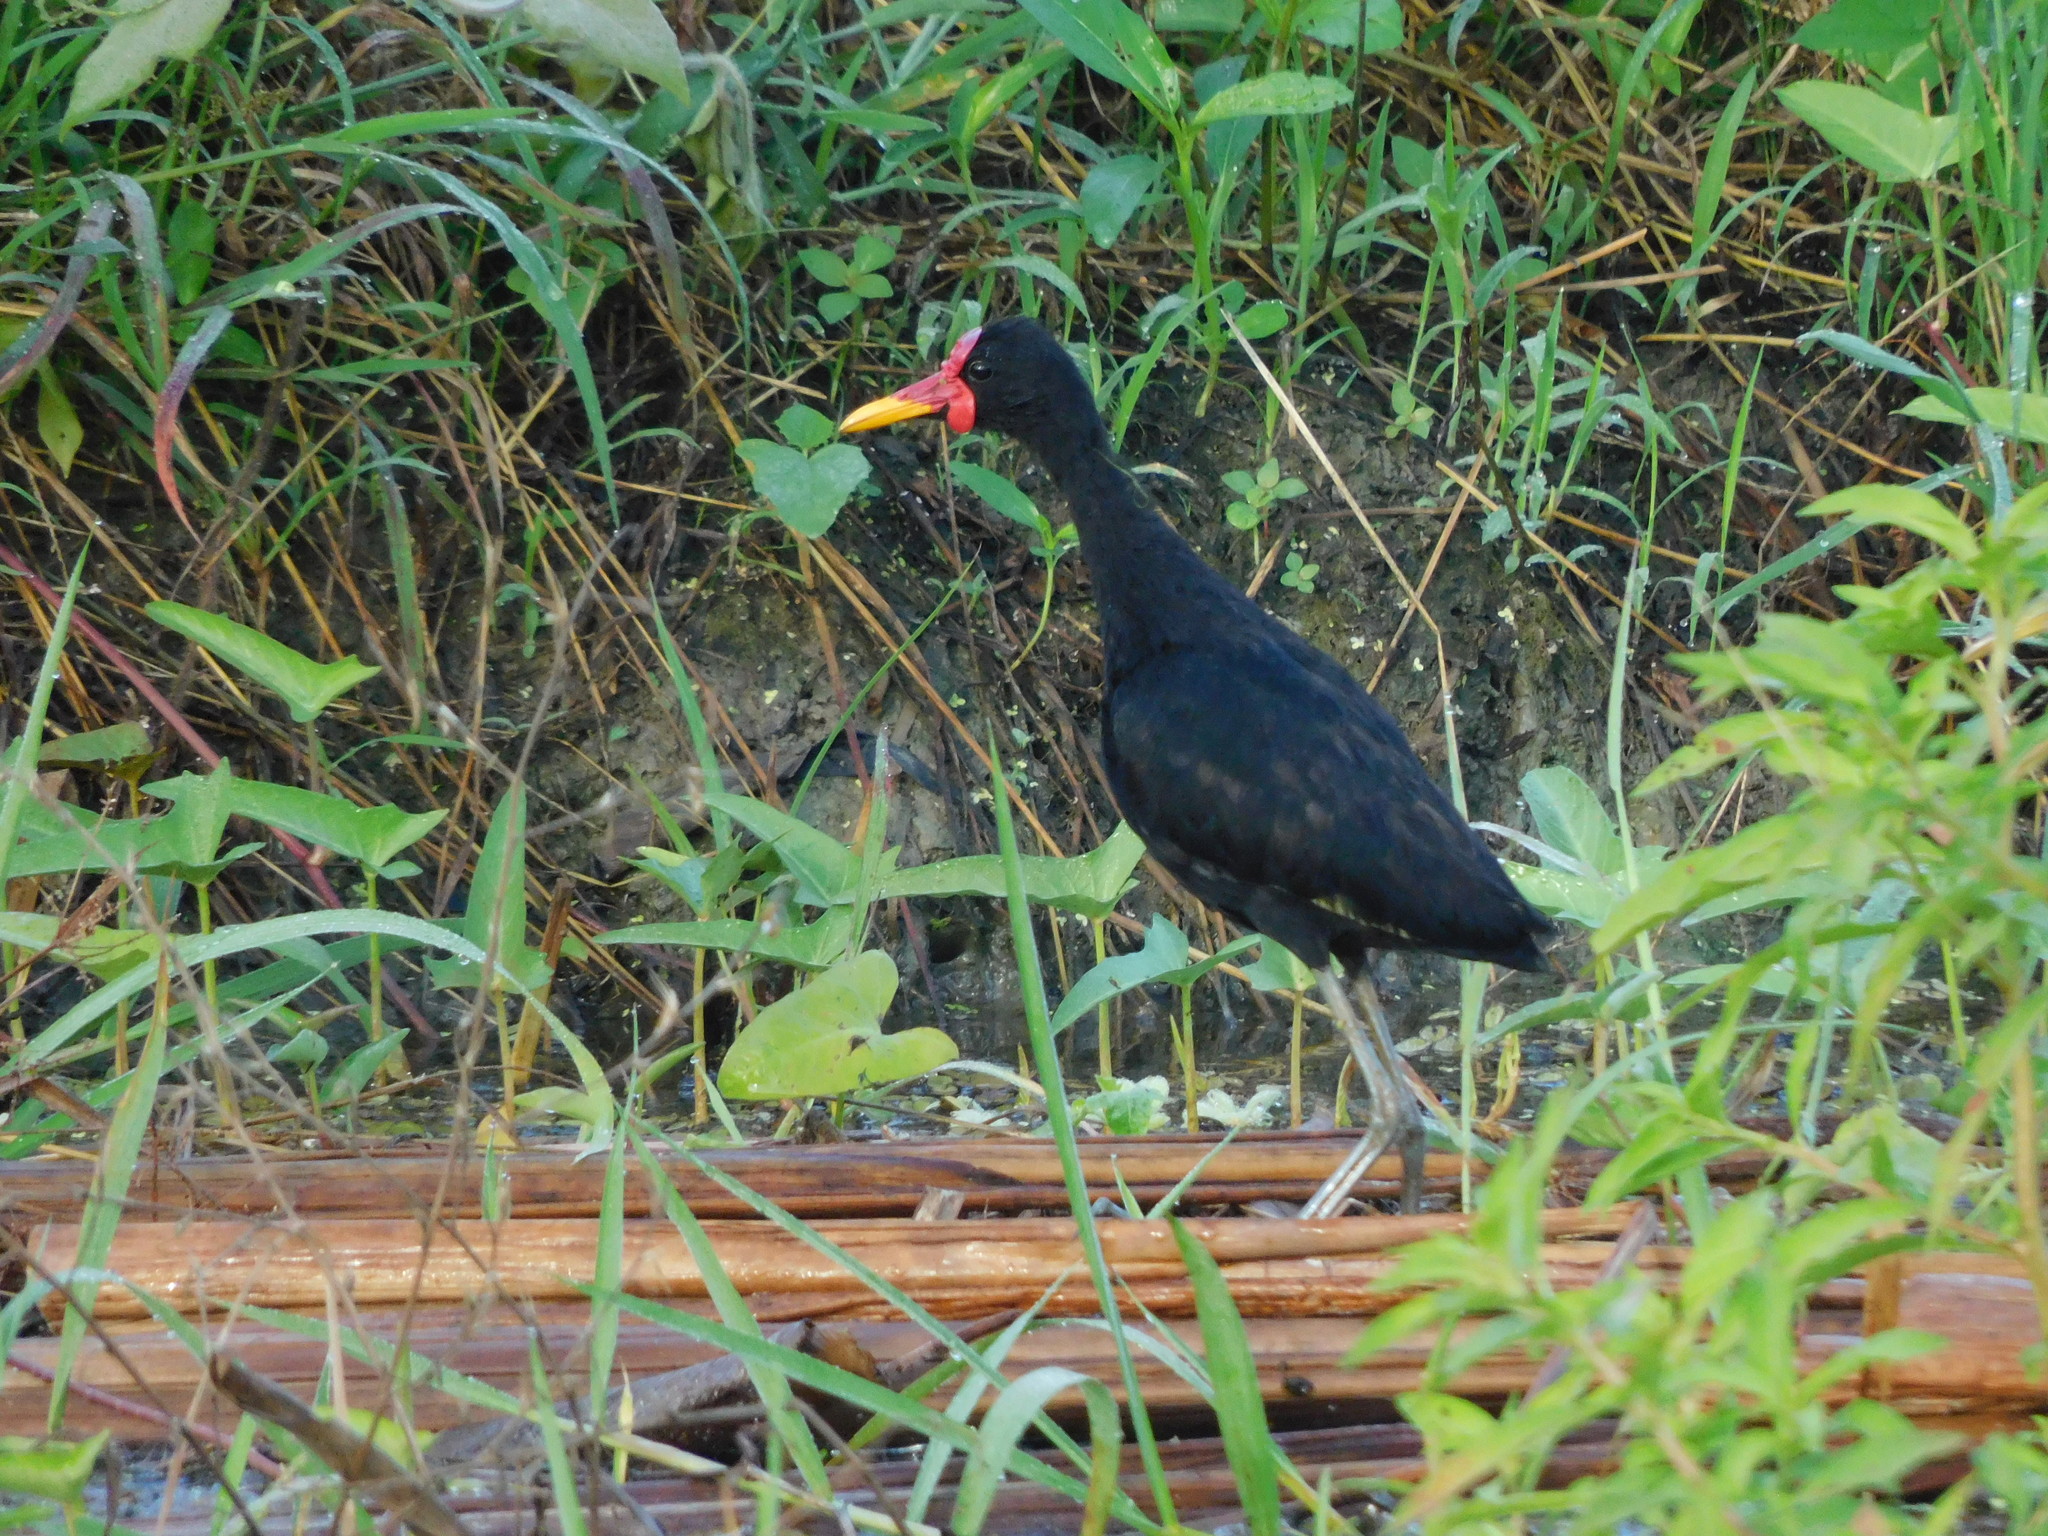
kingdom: Animalia
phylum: Chordata
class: Aves
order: Charadriiformes
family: Jacanidae
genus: Jacana
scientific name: Jacana jacana
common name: Wattled jacana
